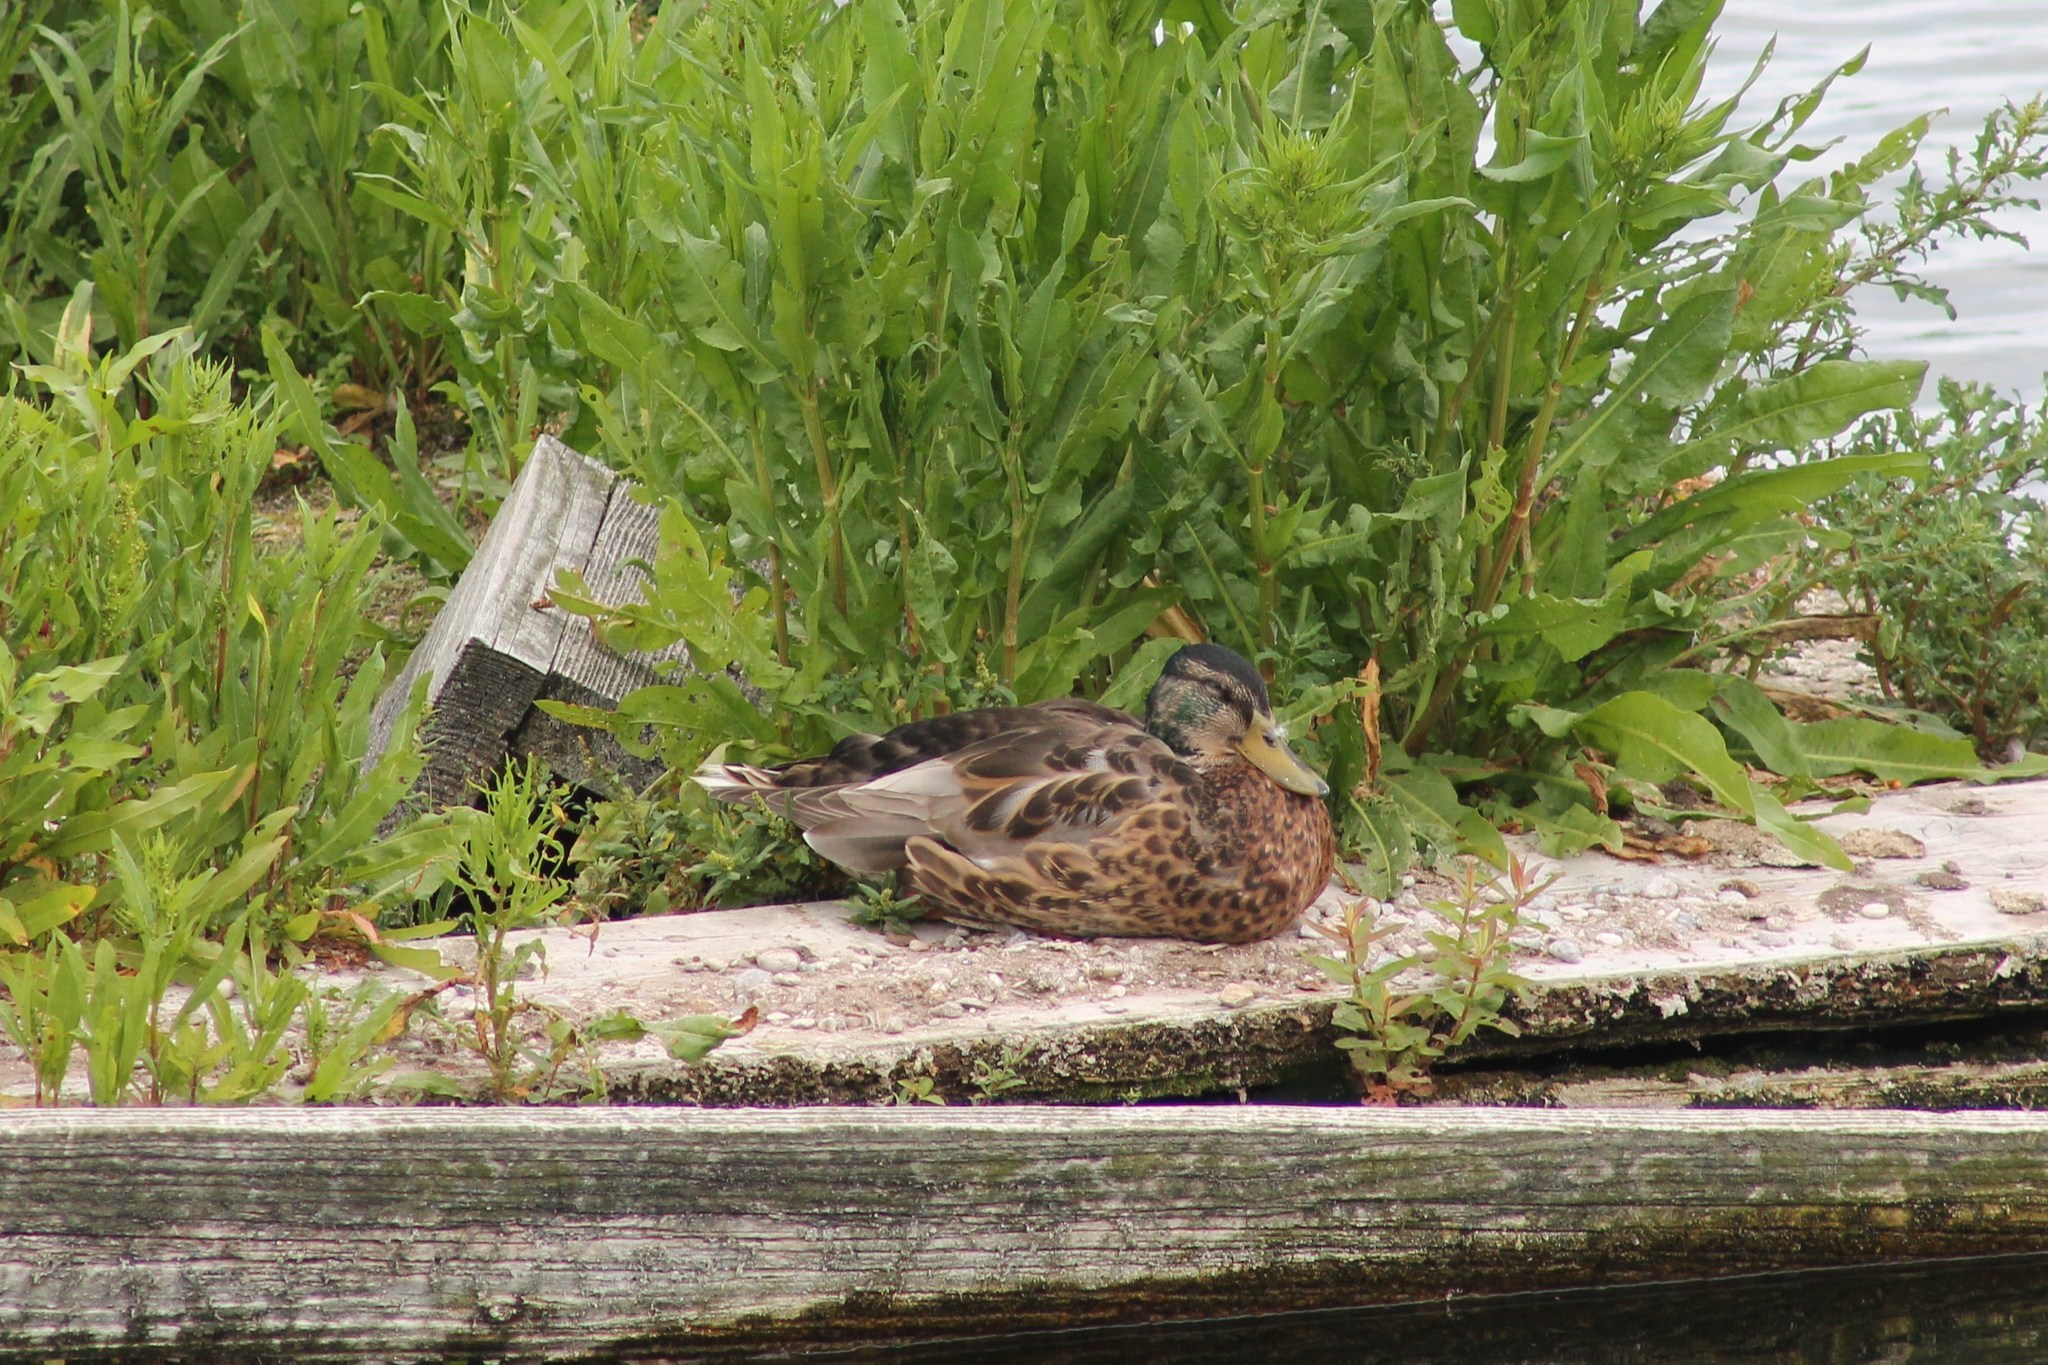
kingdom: Animalia
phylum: Chordata
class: Aves
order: Anseriformes
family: Anatidae
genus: Anas
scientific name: Anas platyrhynchos
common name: Mallard
